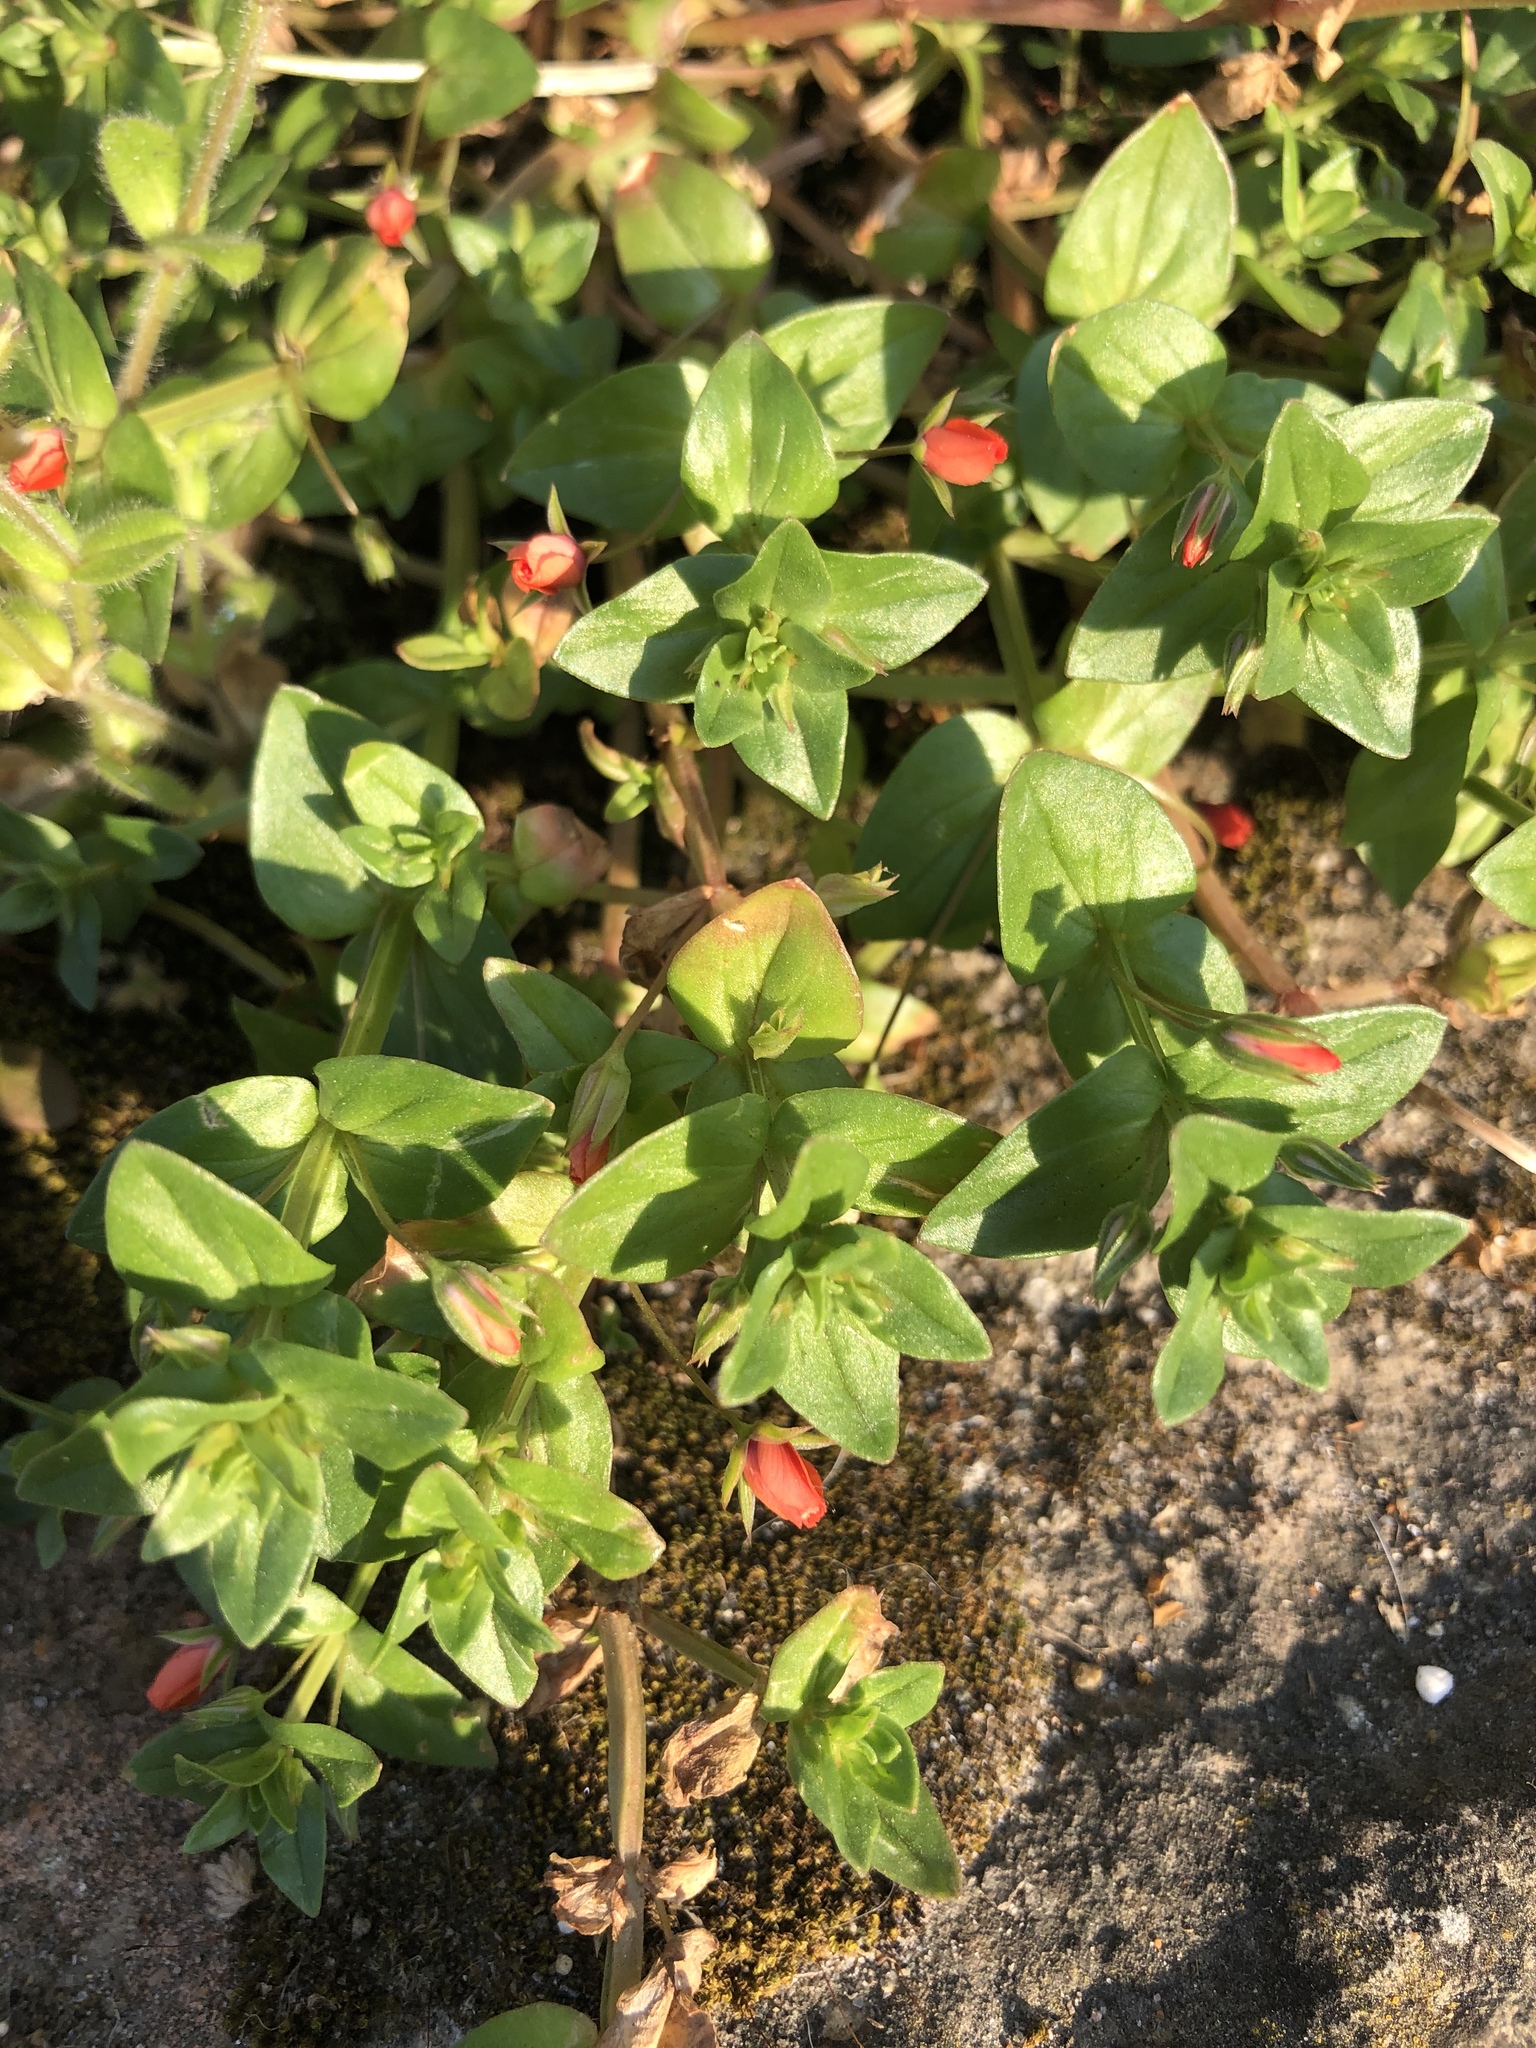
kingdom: Plantae
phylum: Tracheophyta
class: Magnoliopsida
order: Ericales
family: Primulaceae
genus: Lysimachia
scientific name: Lysimachia arvensis
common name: Scarlet pimpernel
